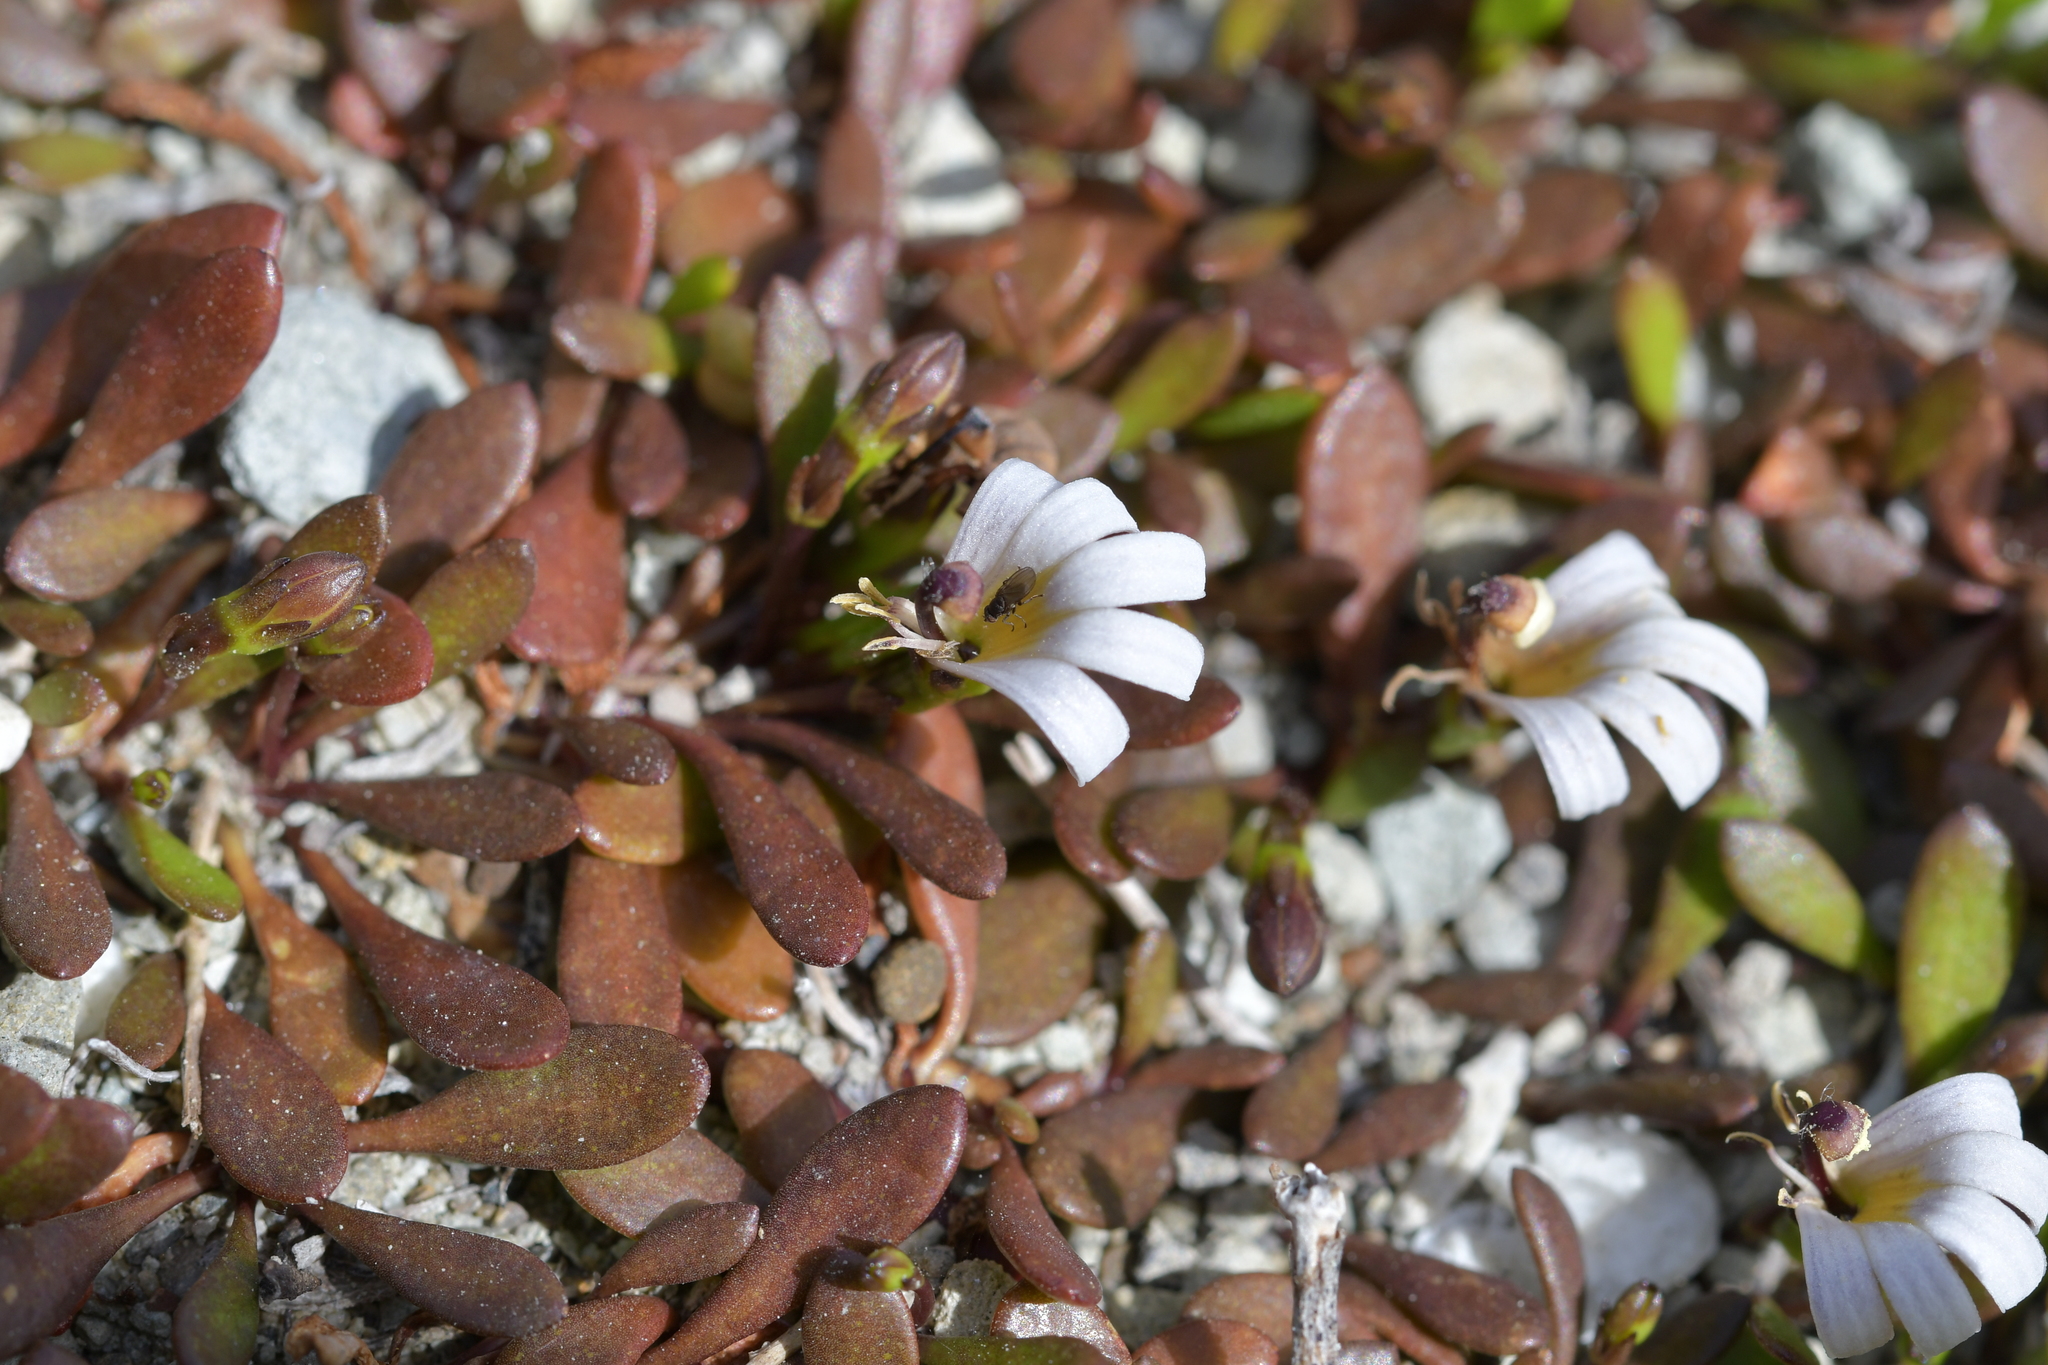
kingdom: Plantae
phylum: Tracheophyta
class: Magnoliopsida
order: Asterales
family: Goodeniaceae
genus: Goodenia
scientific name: Goodenia radicans
